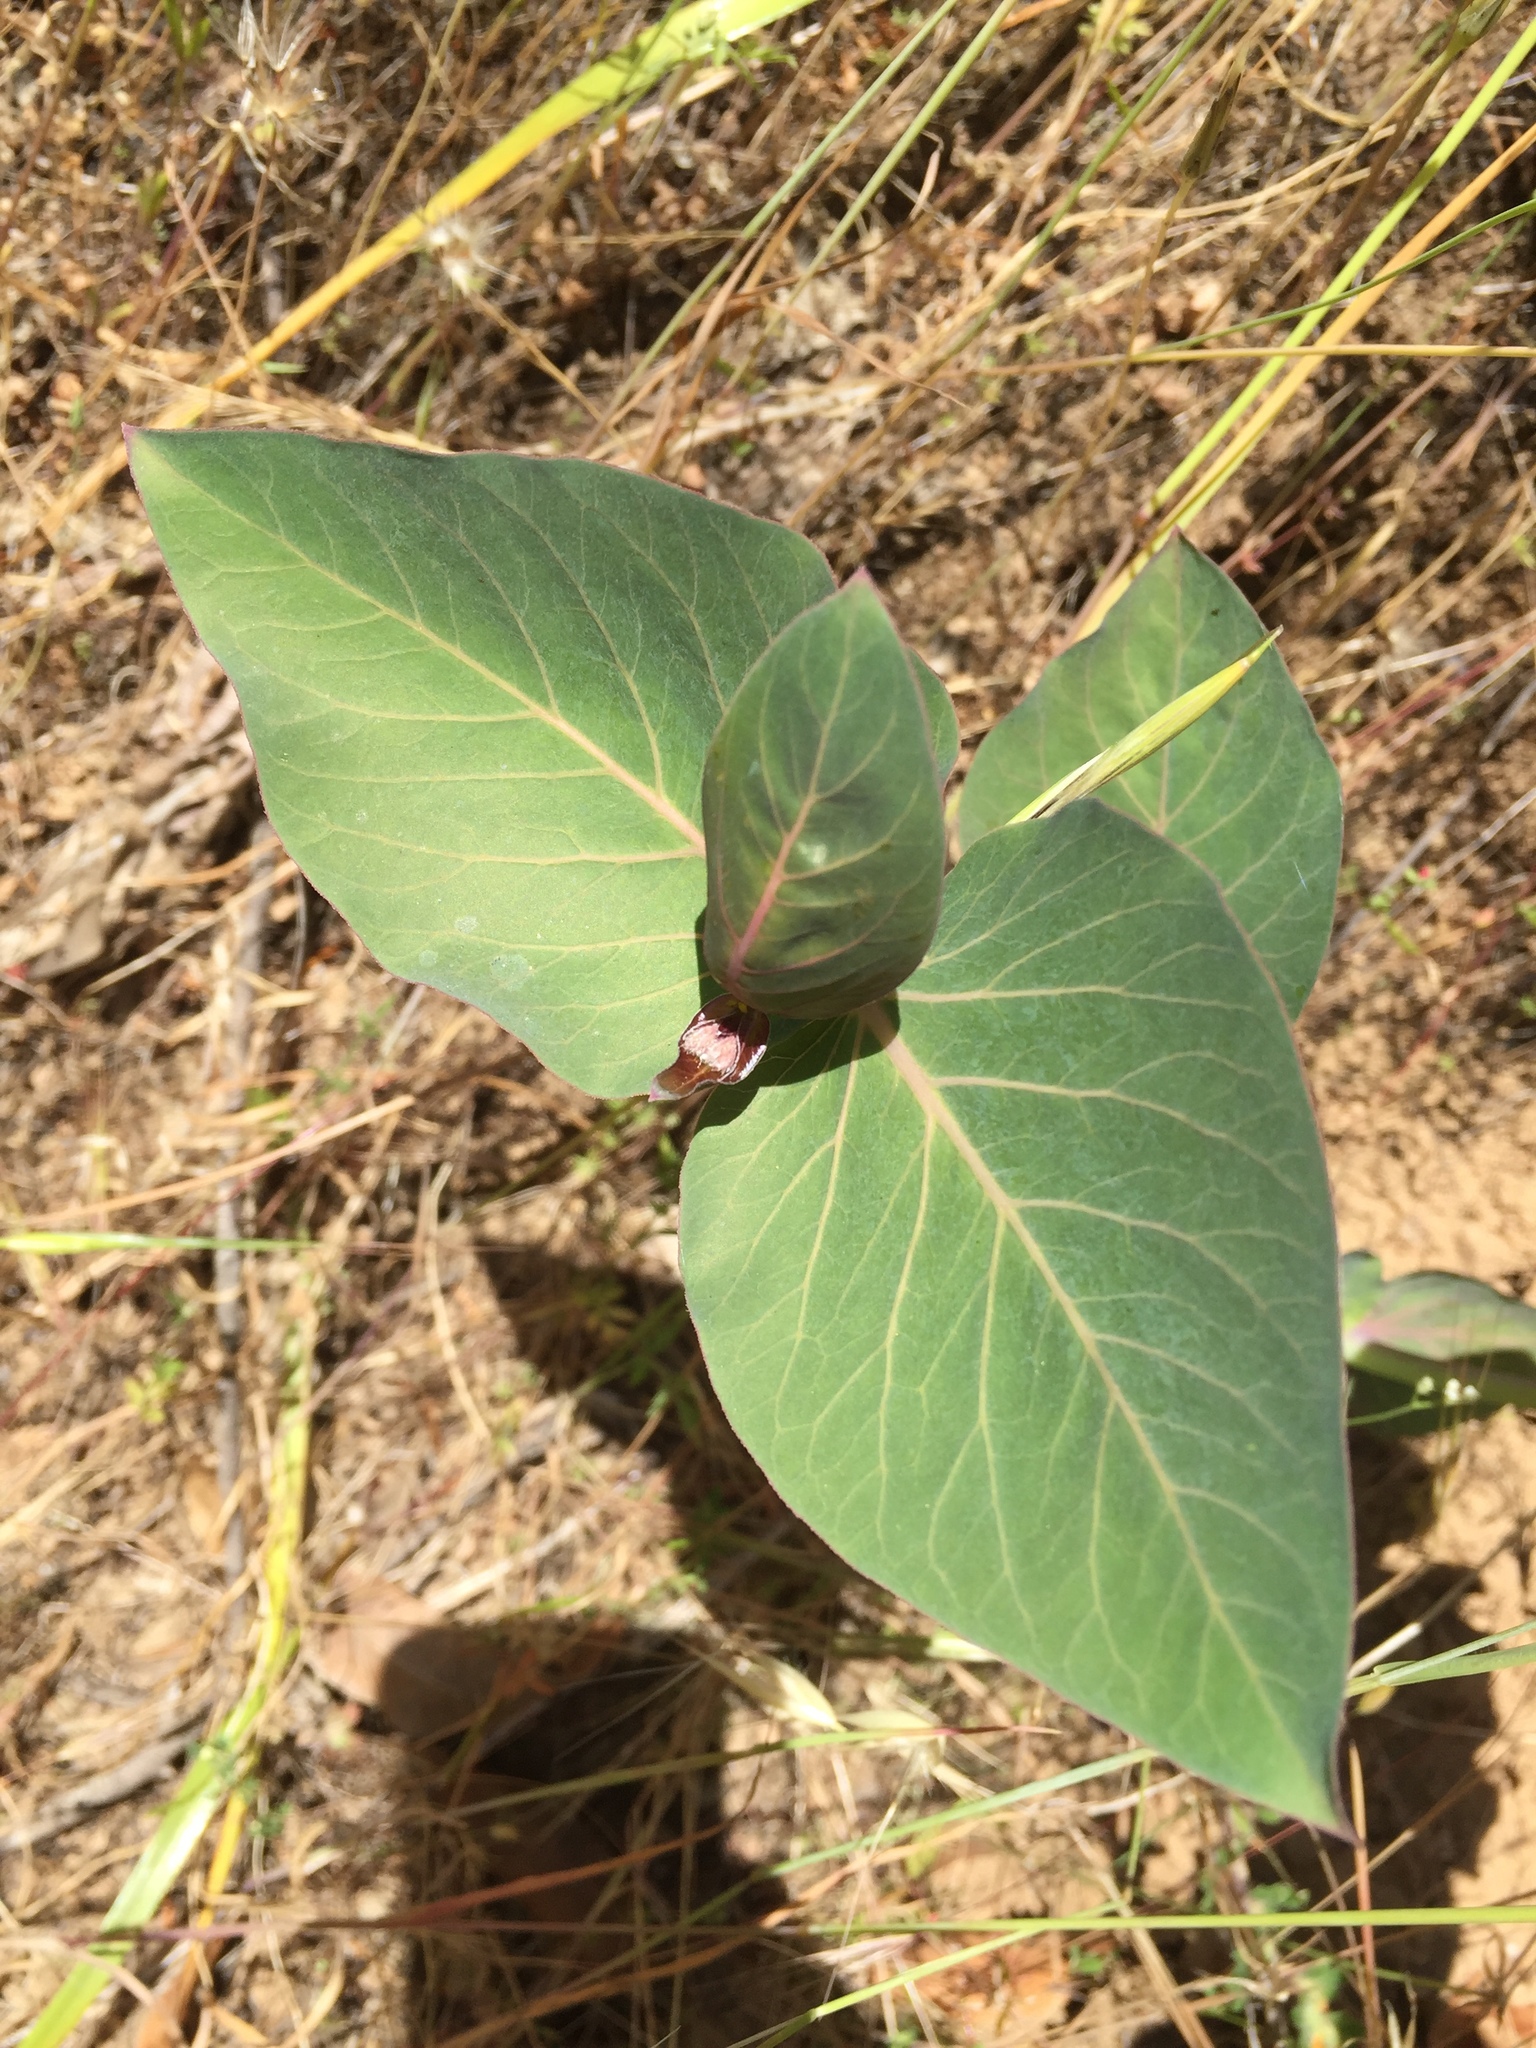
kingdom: Plantae
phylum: Tracheophyta
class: Magnoliopsida
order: Gentianales
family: Apocynaceae
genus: Asclepias
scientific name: Asclepias cordifolia
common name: Purple milkweed
